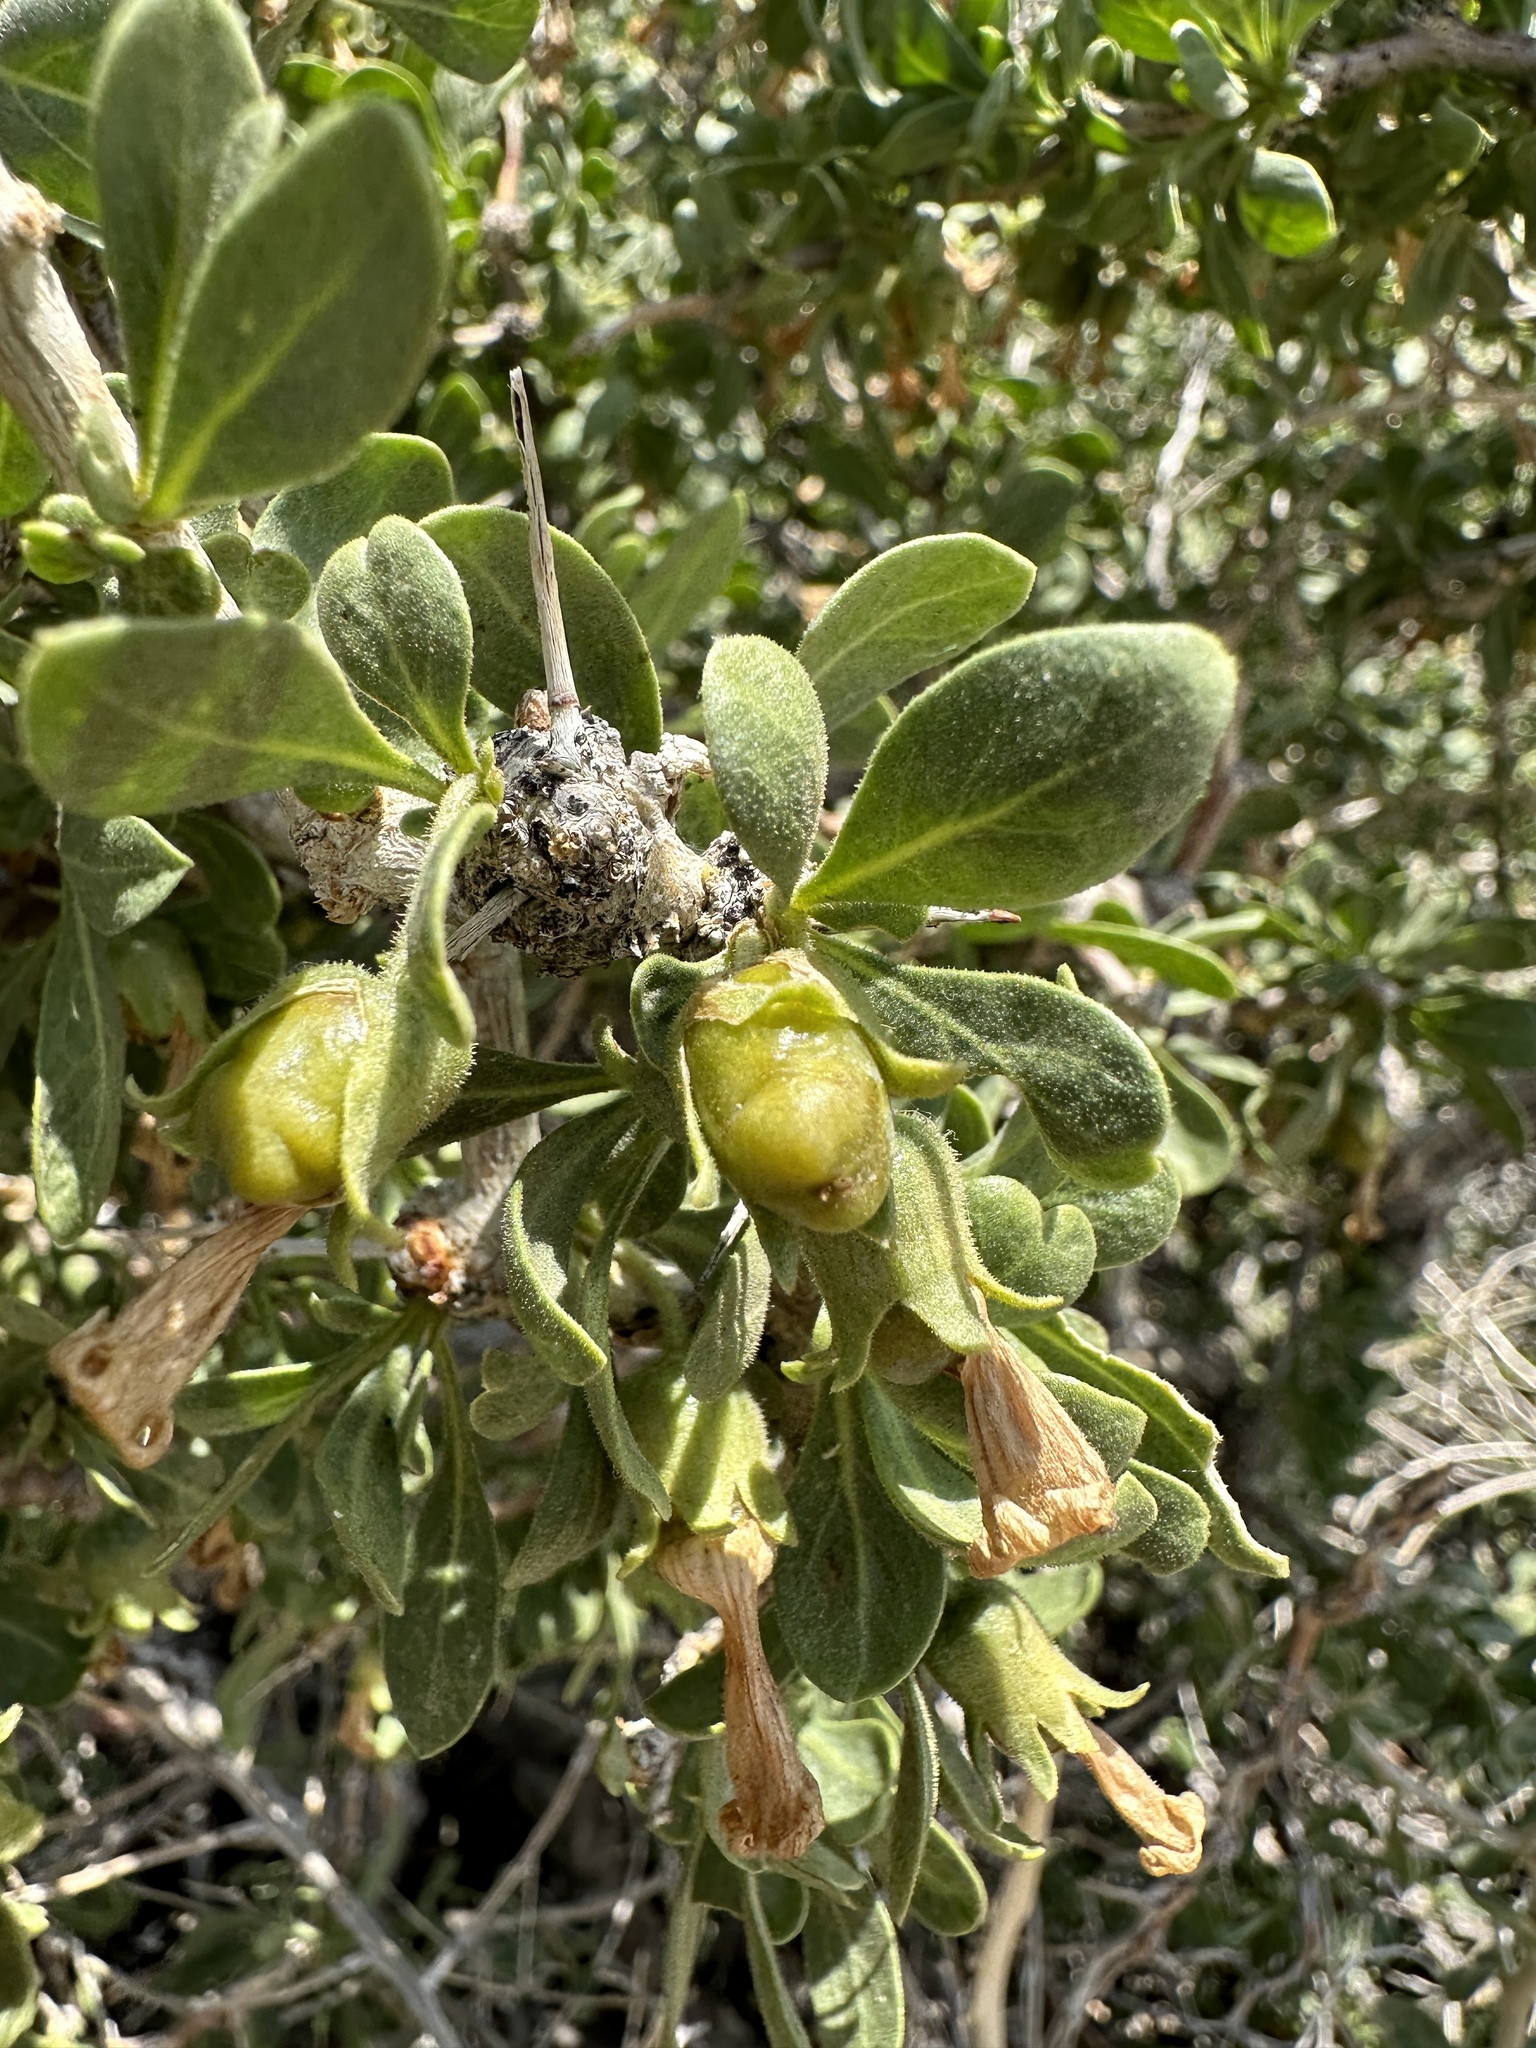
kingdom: Plantae
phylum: Tracheophyta
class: Magnoliopsida
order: Solanales
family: Solanaceae
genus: Lycium
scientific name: Lycium cooperi
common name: Peachthorn
